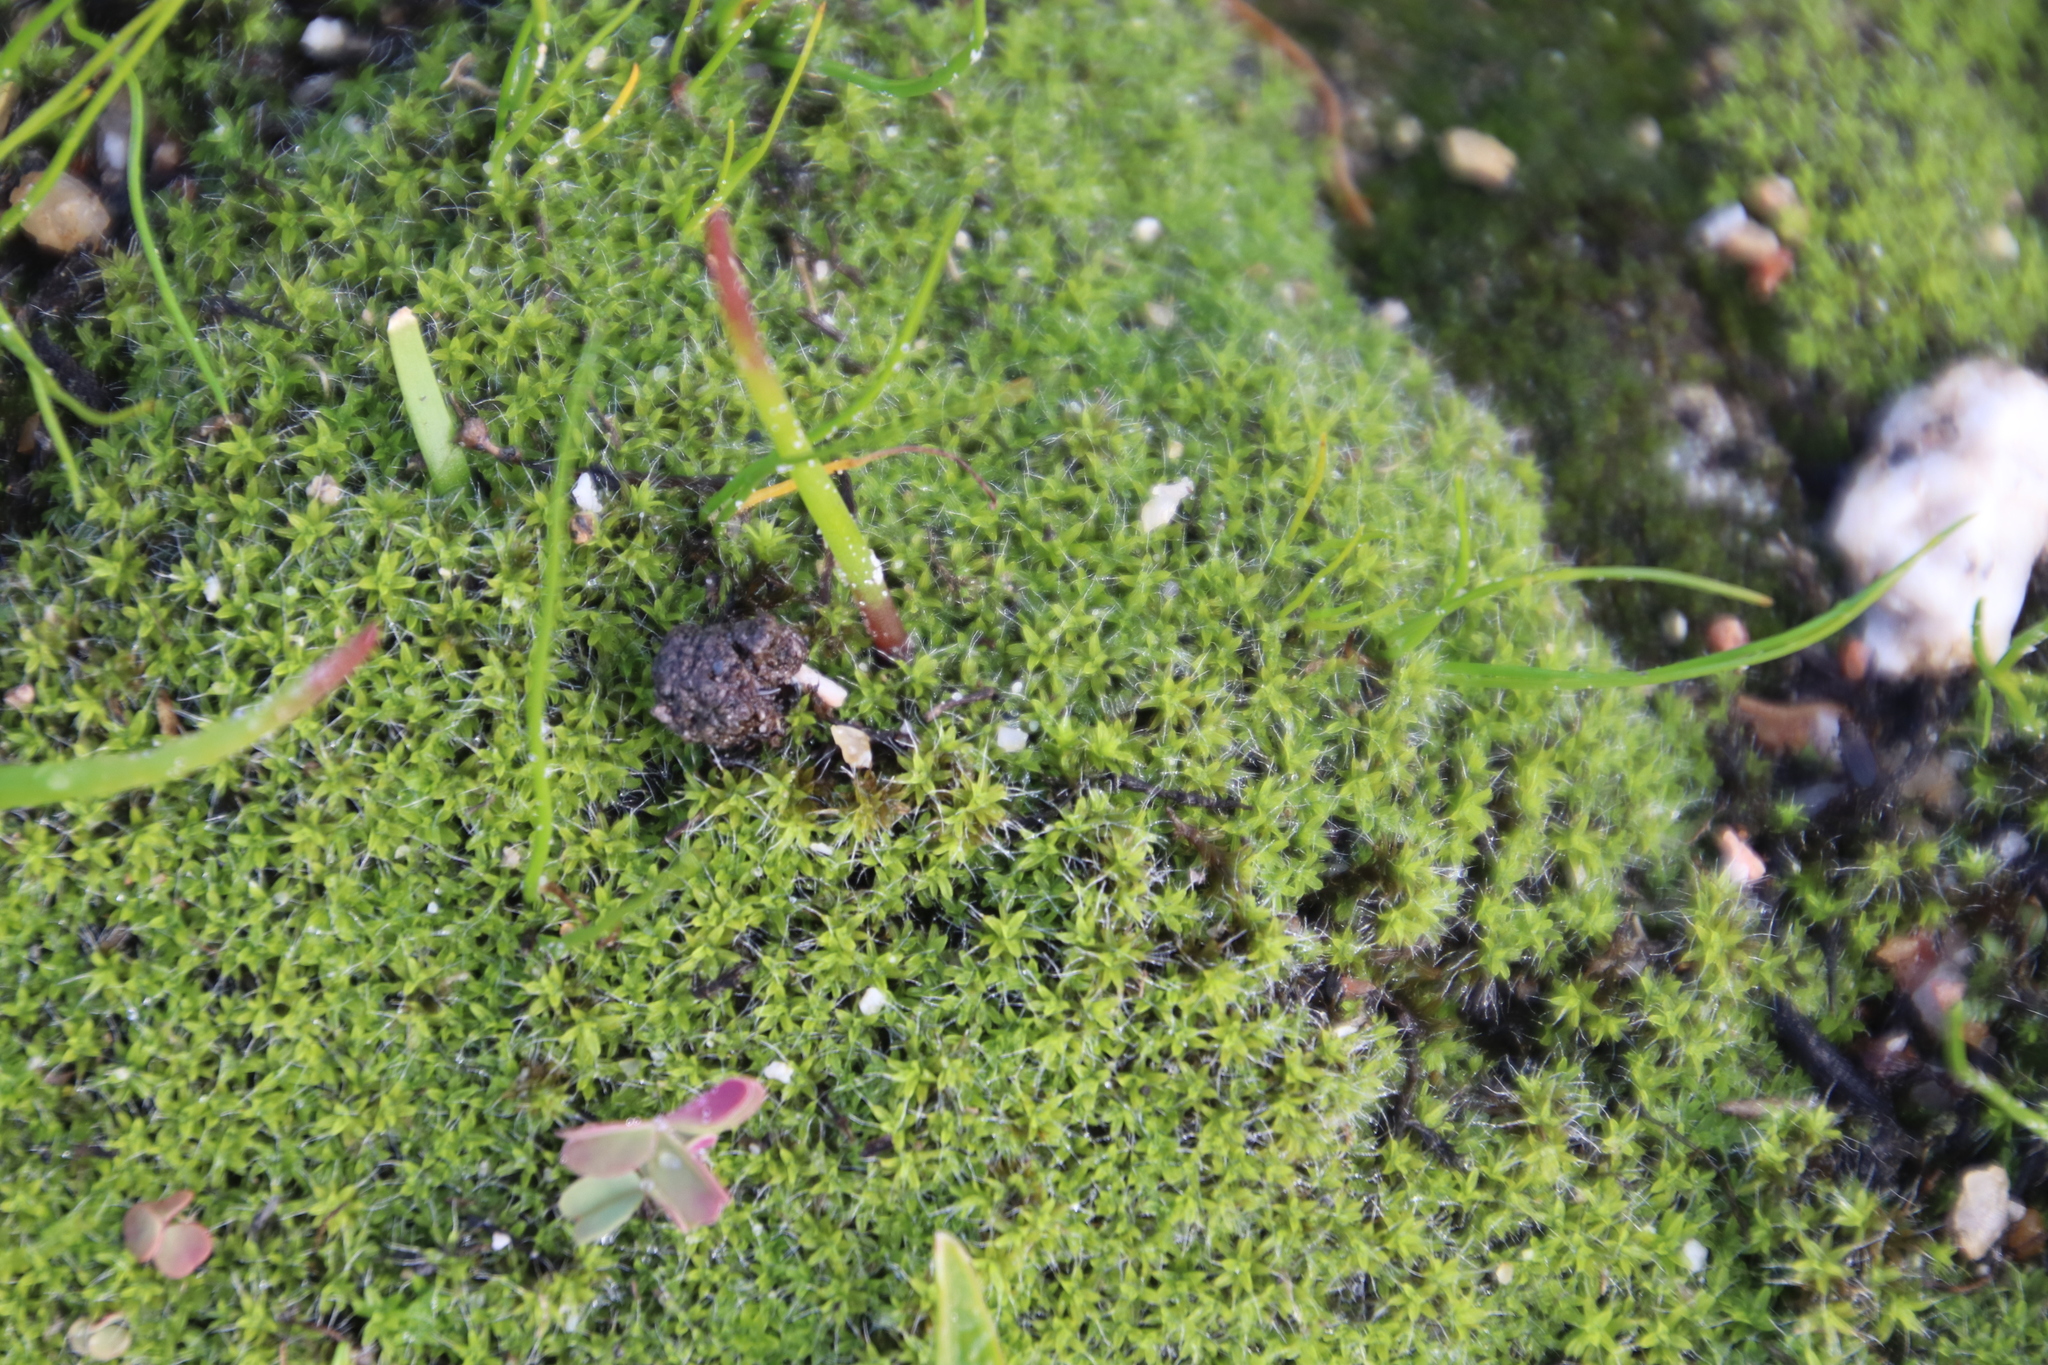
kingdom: Plantae
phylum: Bryophyta
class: Bryopsida
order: Pottiales
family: Pottiaceae
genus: Pseudocrossidium
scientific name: Pseudocrossidium crinitum
